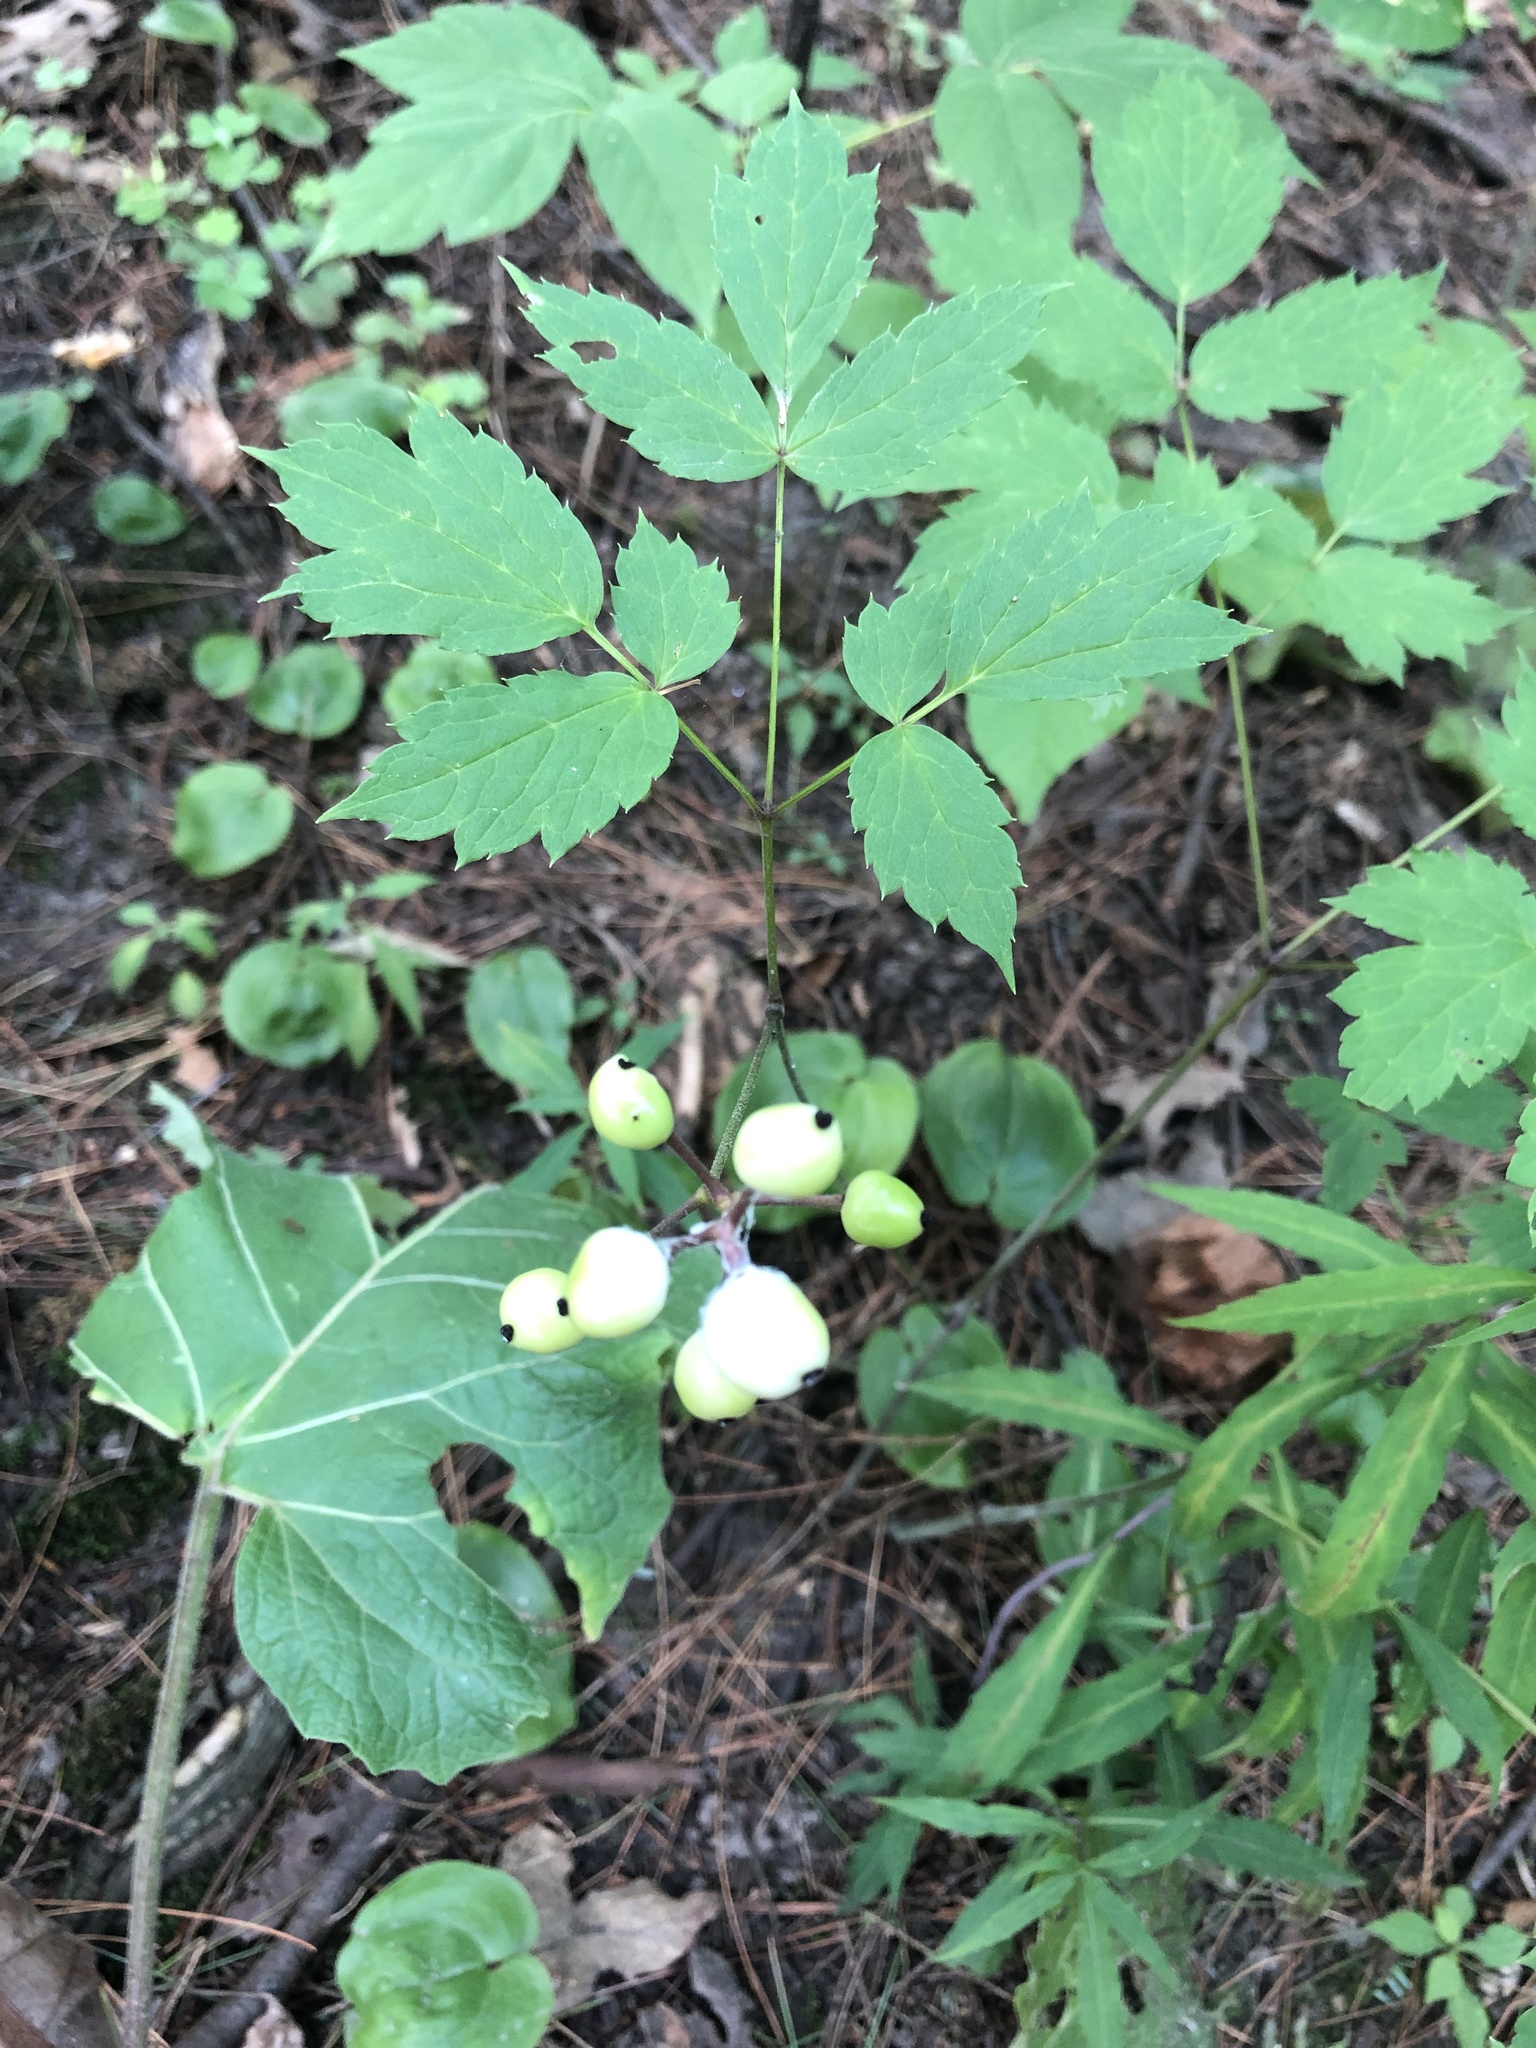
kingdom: Plantae
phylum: Tracheophyta
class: Magnoliopsida
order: Ranunculales
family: Ranunculaceae
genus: Actaea
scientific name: Actaea rubra
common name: Red baneberry
